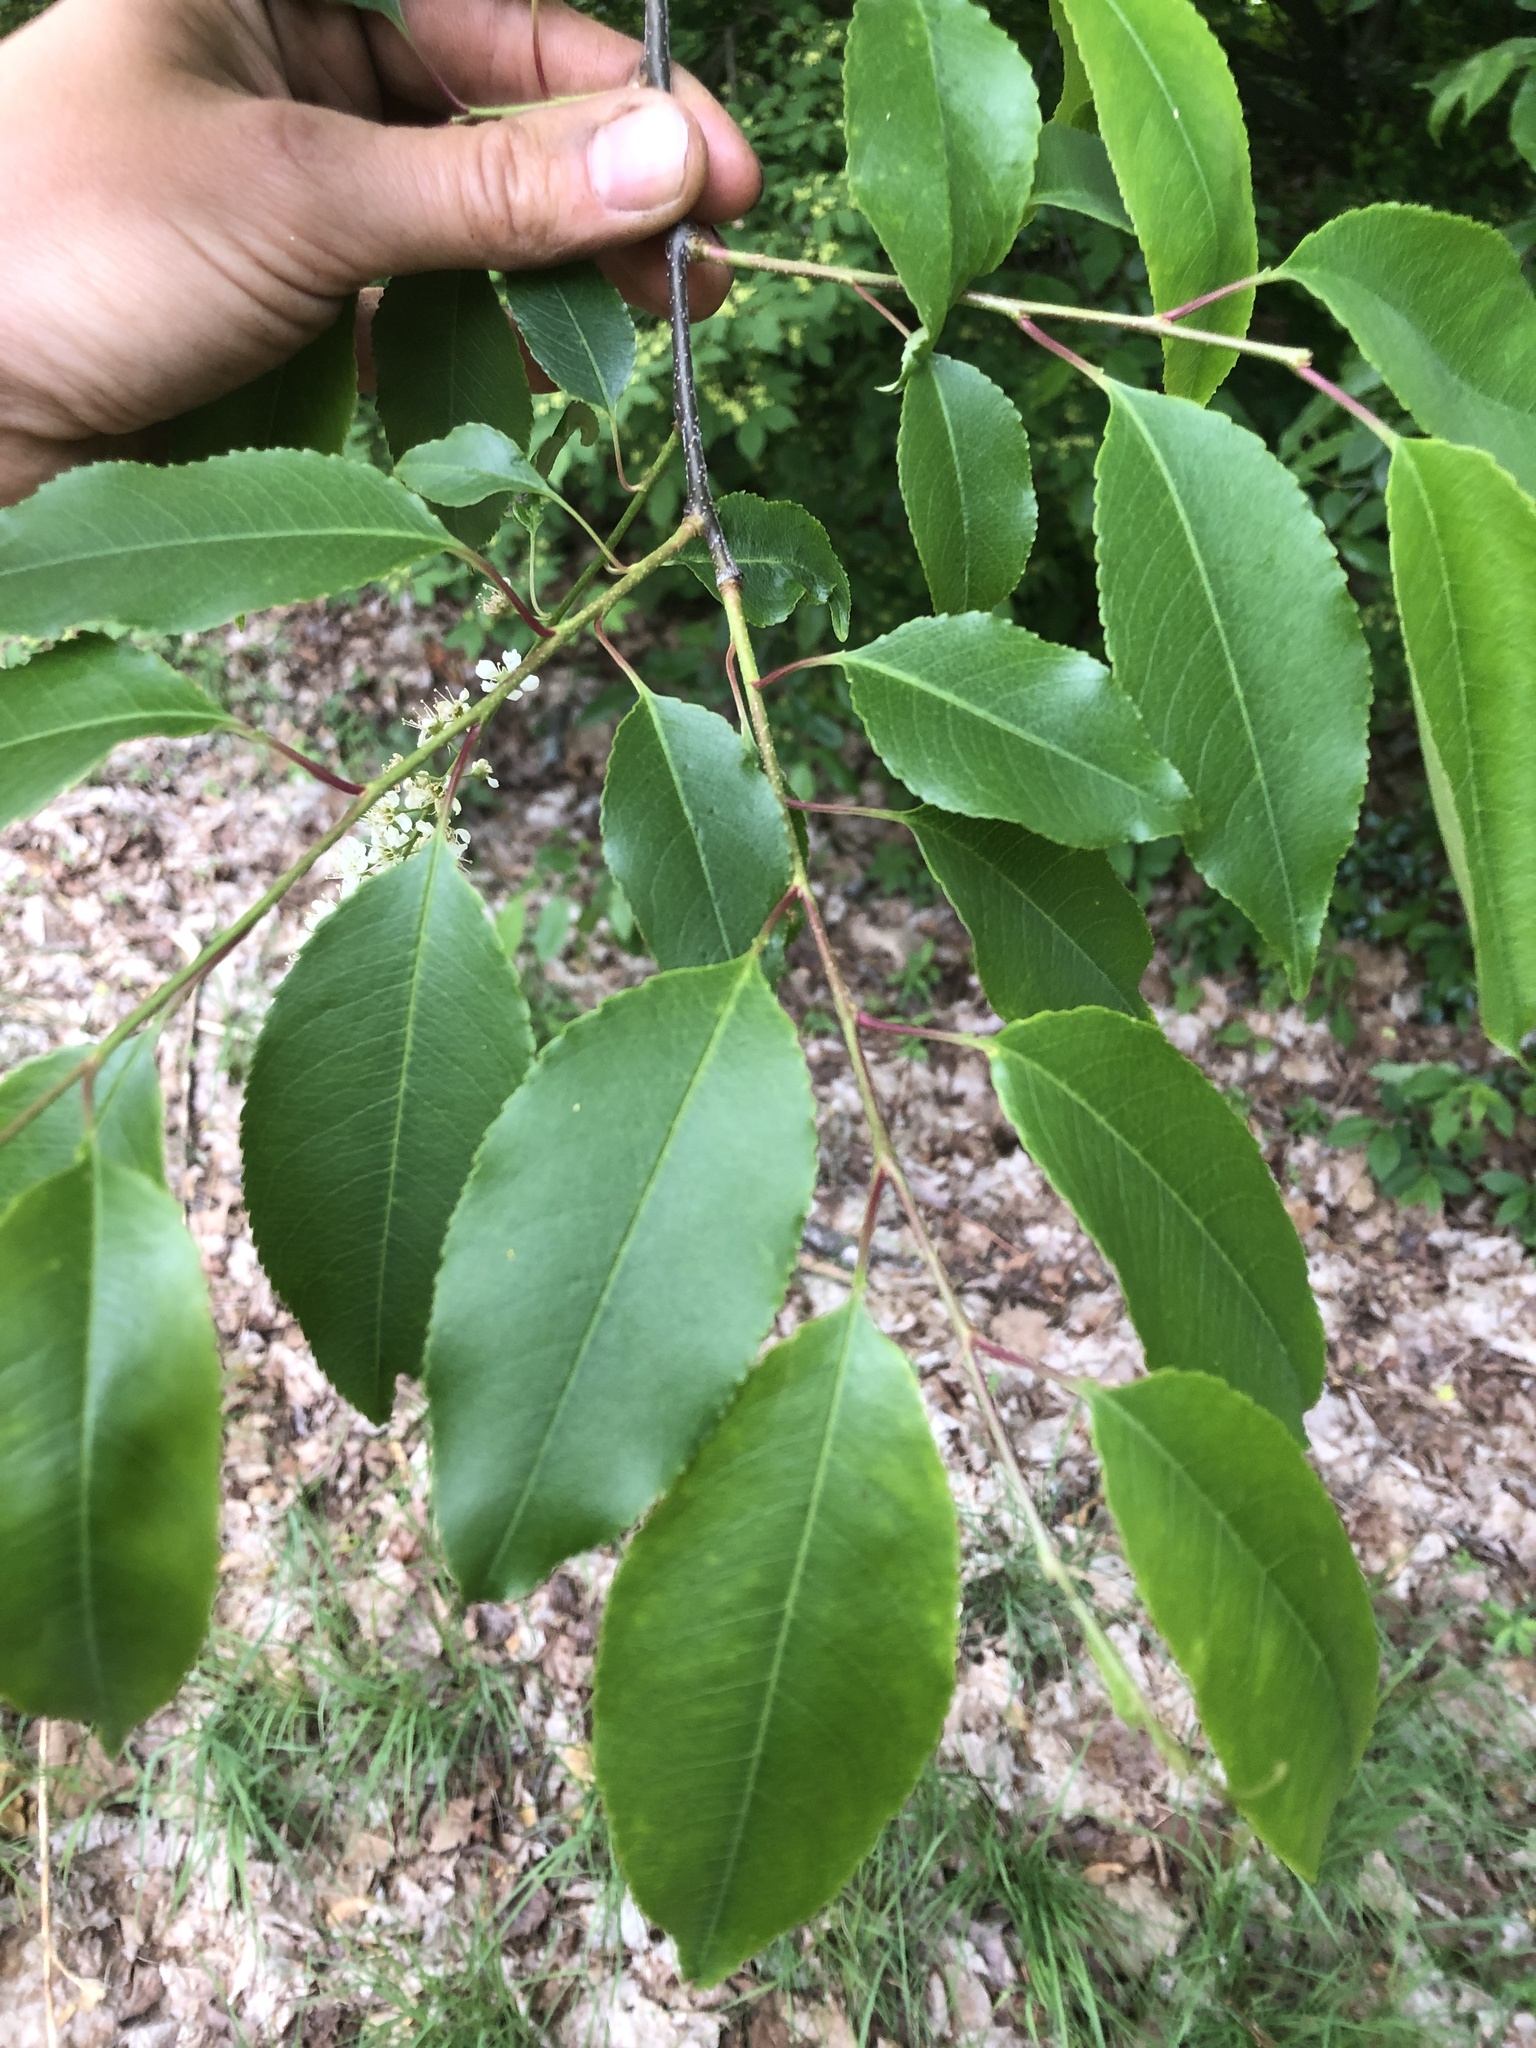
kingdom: Plantae
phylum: Tracheophyta
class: Magnoliopsida
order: Rosales
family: Rosaceae
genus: Prunus
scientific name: Prunus serotina
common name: Black cherry
